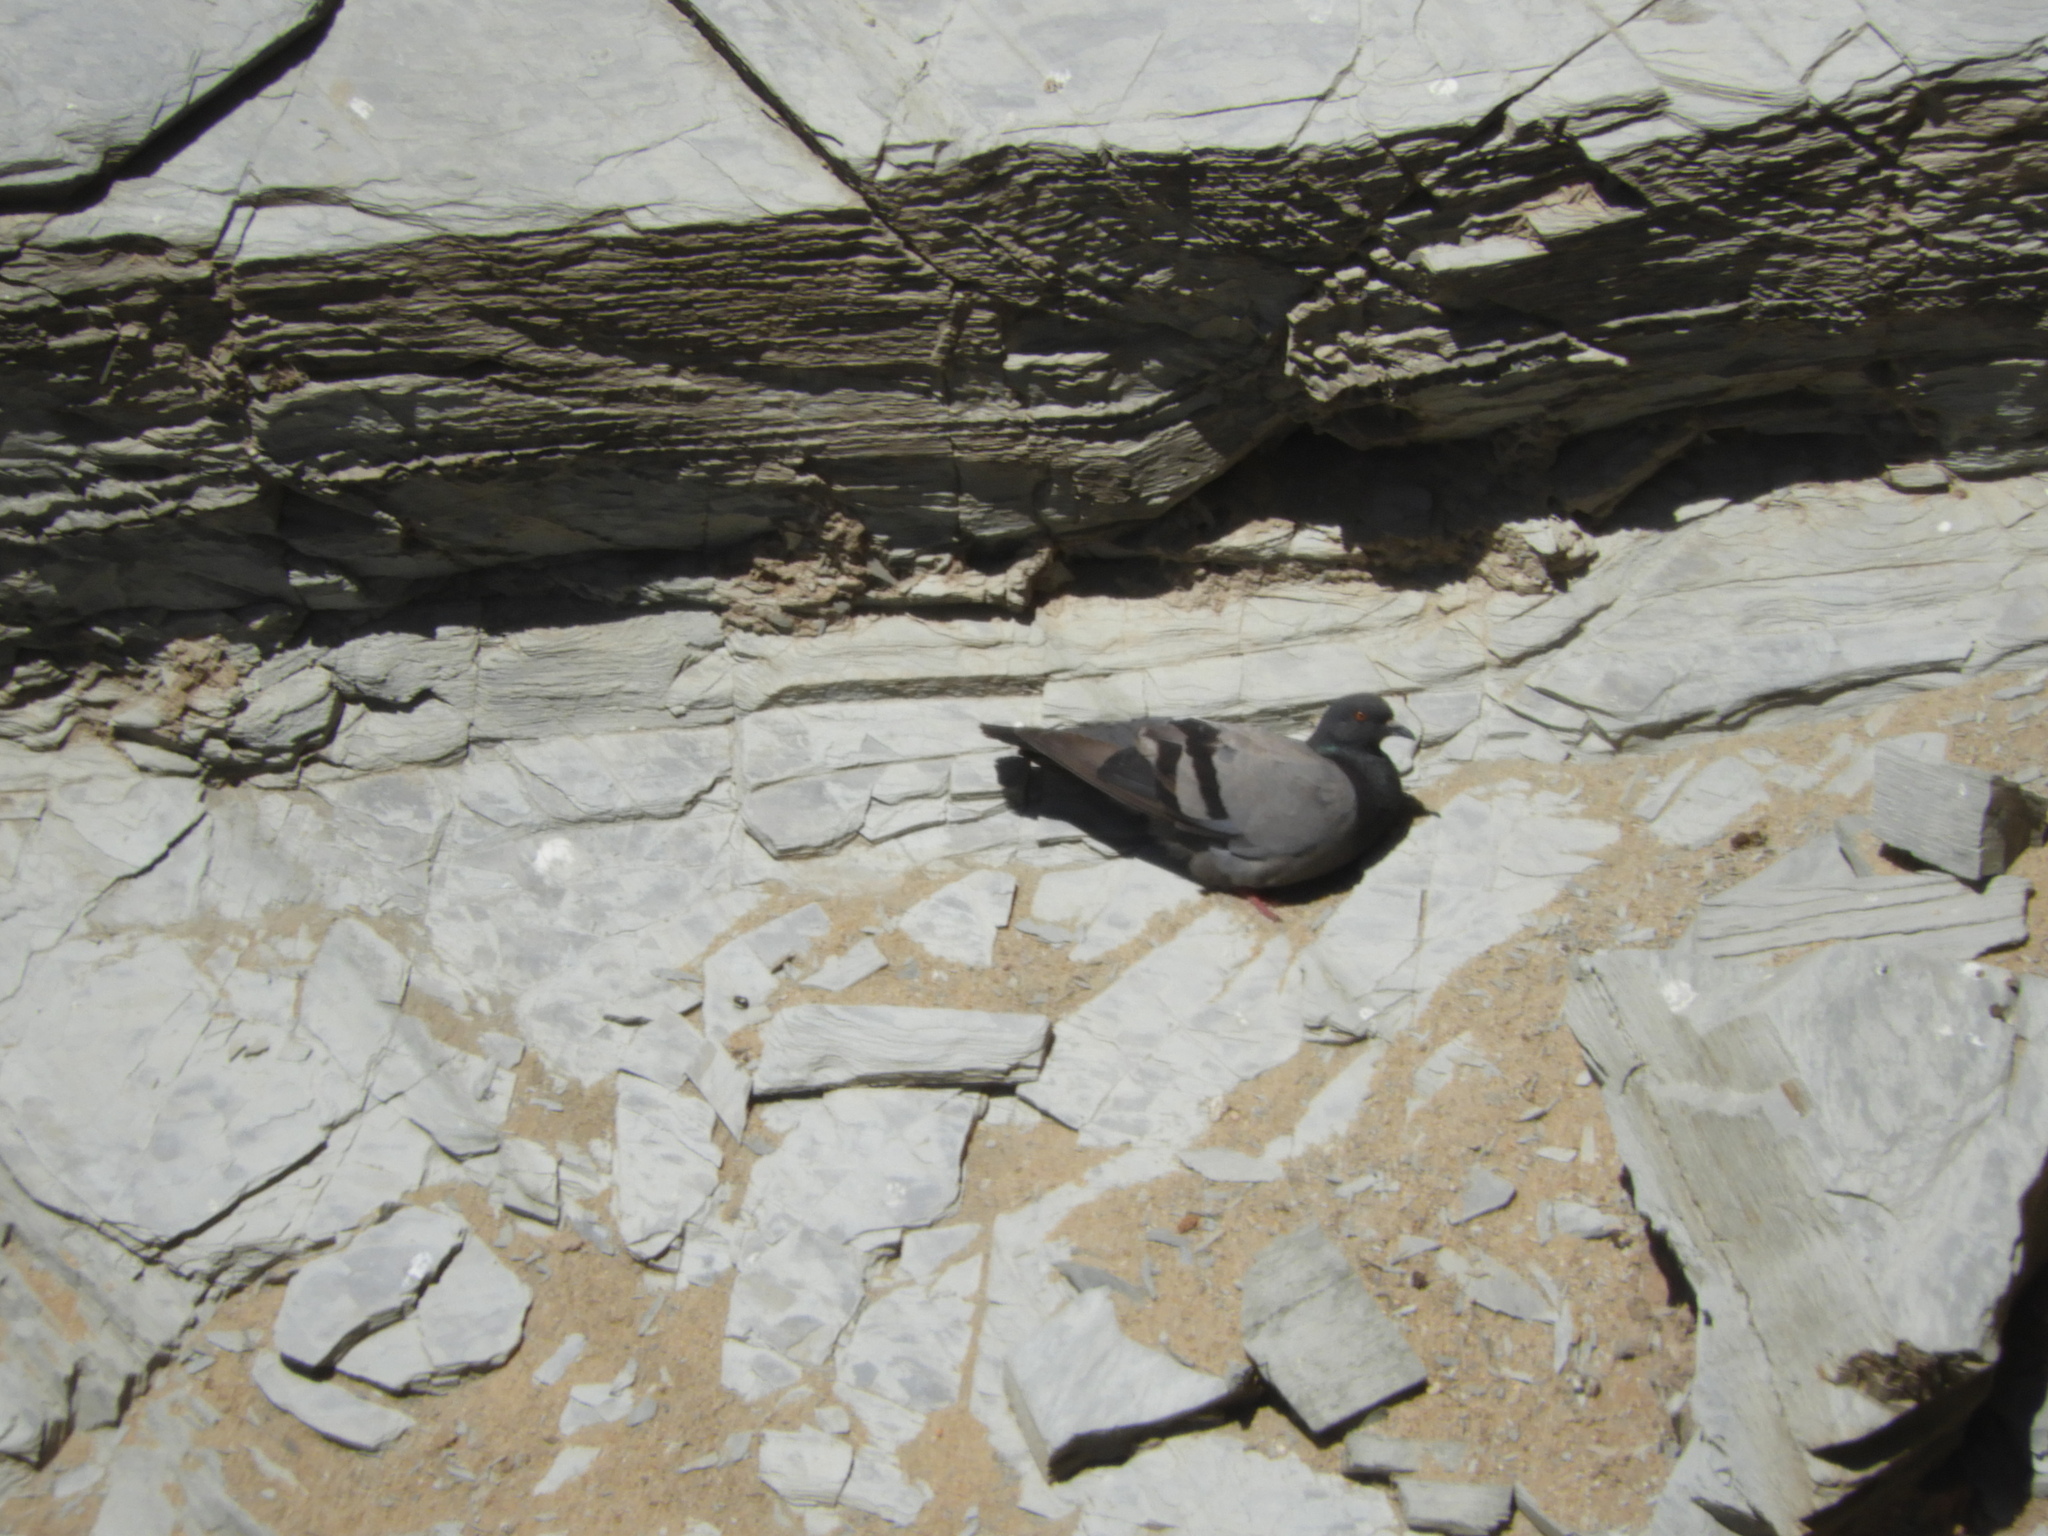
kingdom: Animalia
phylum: Chordata
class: Aves
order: Columbiformes
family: Columbidae
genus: Columba
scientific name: Columba livia
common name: Rock pigeon
